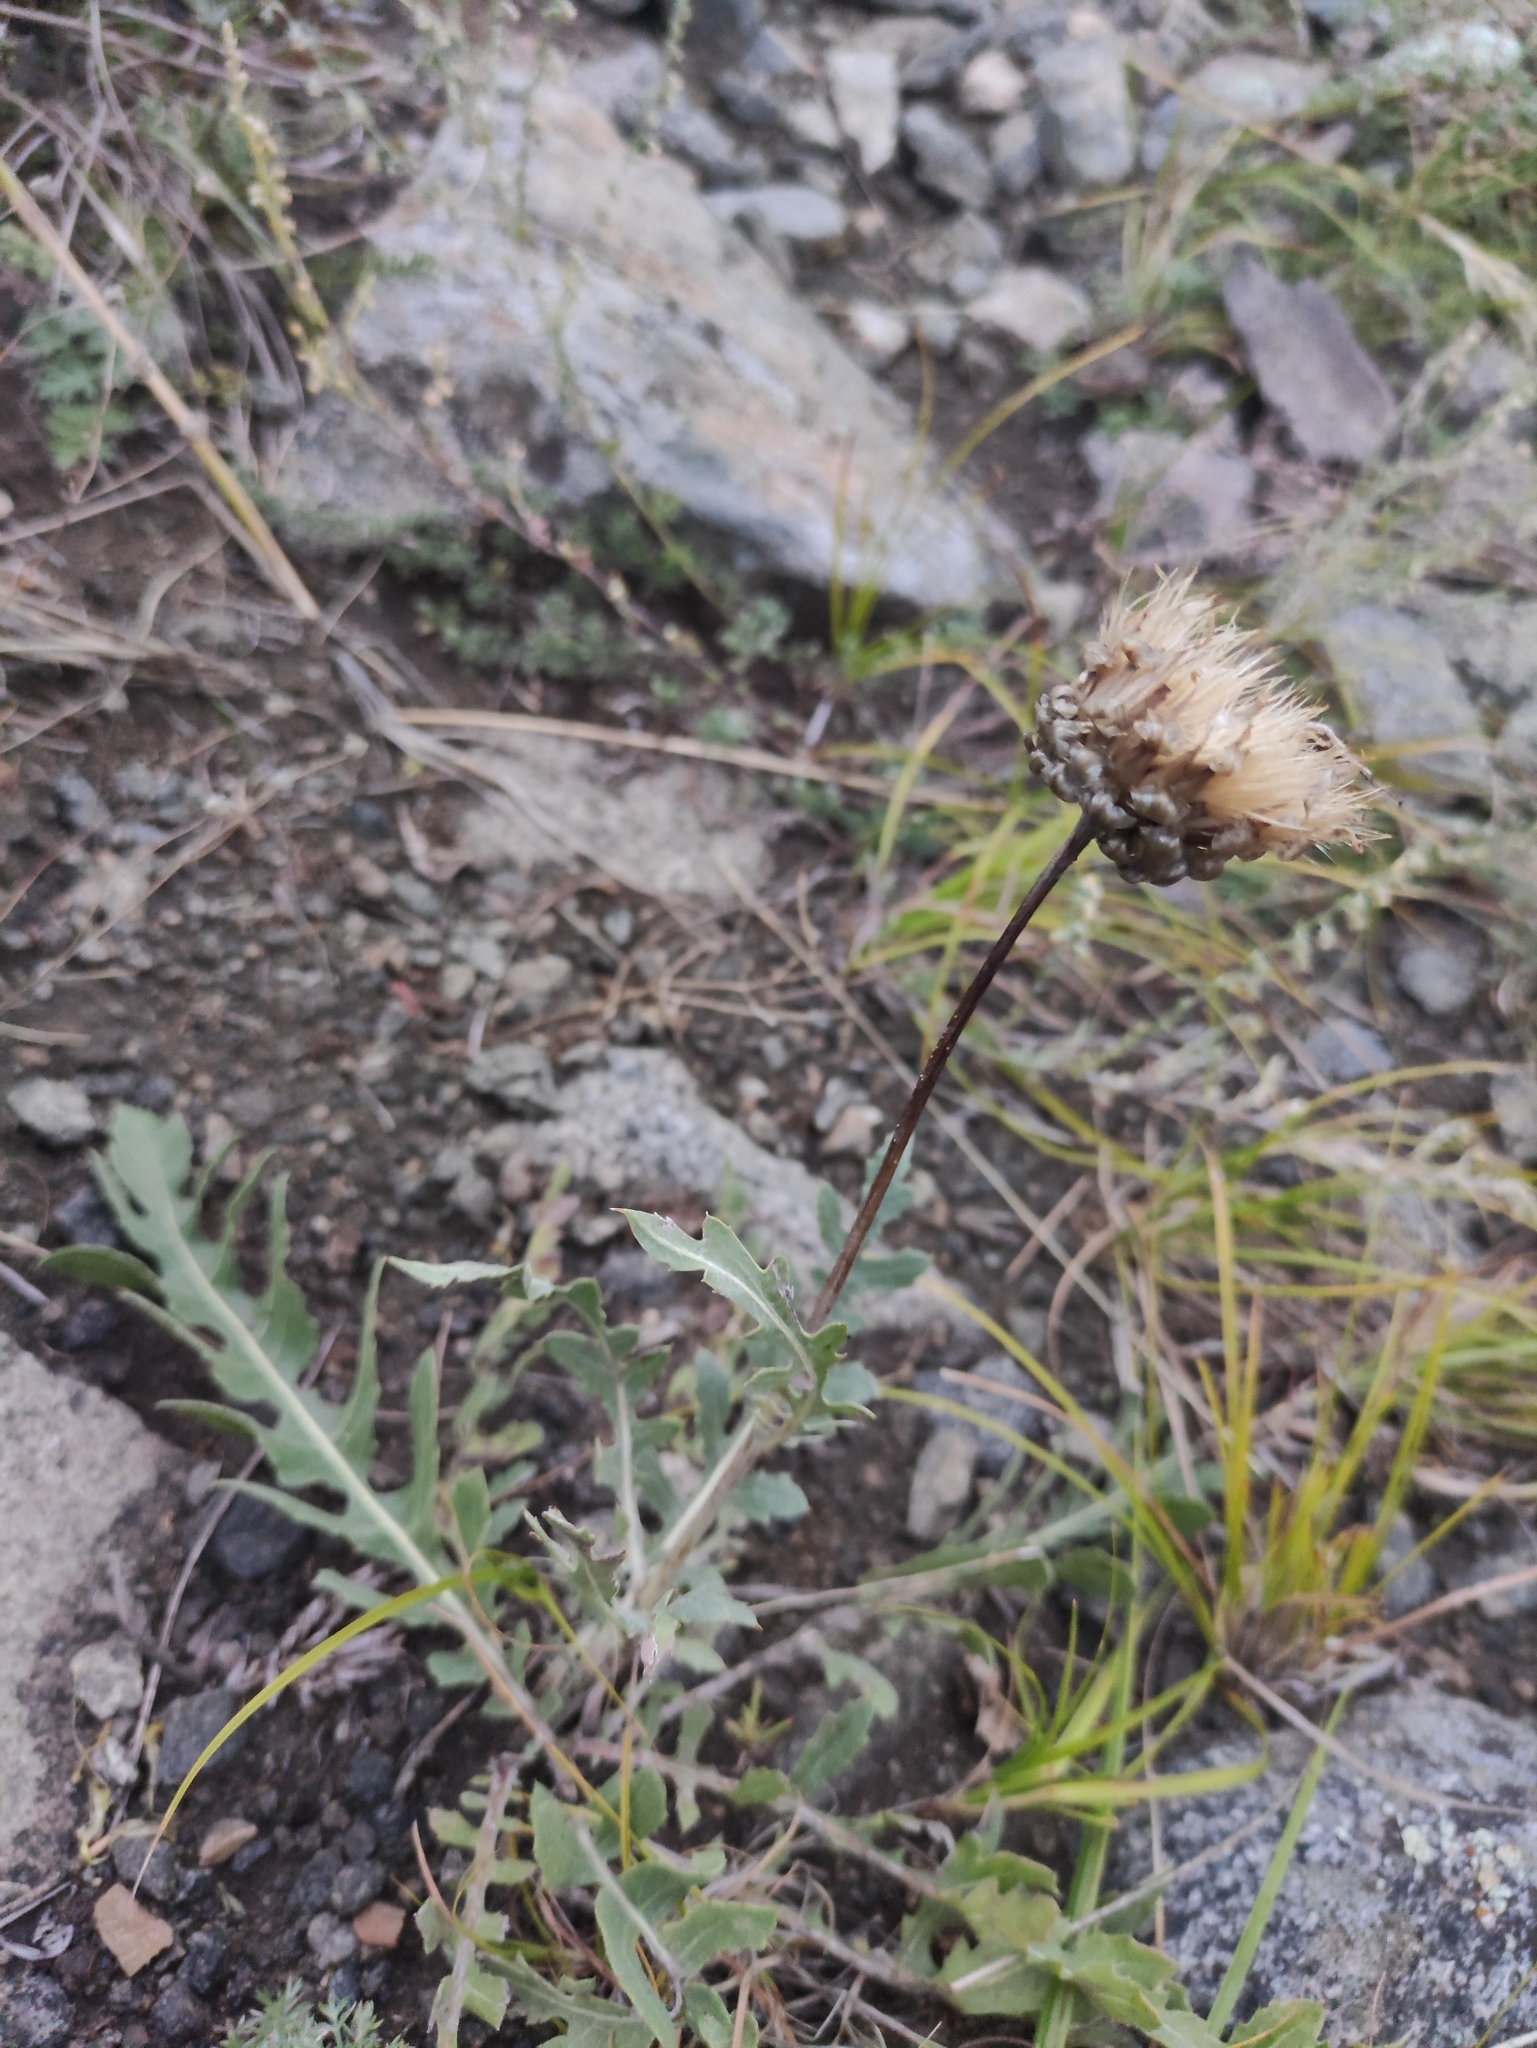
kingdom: Plantae
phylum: Tracheophyta
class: Magnoliopsida
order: Asterales
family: Asteraceae
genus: Leuzea
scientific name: Leuzea uniflora
